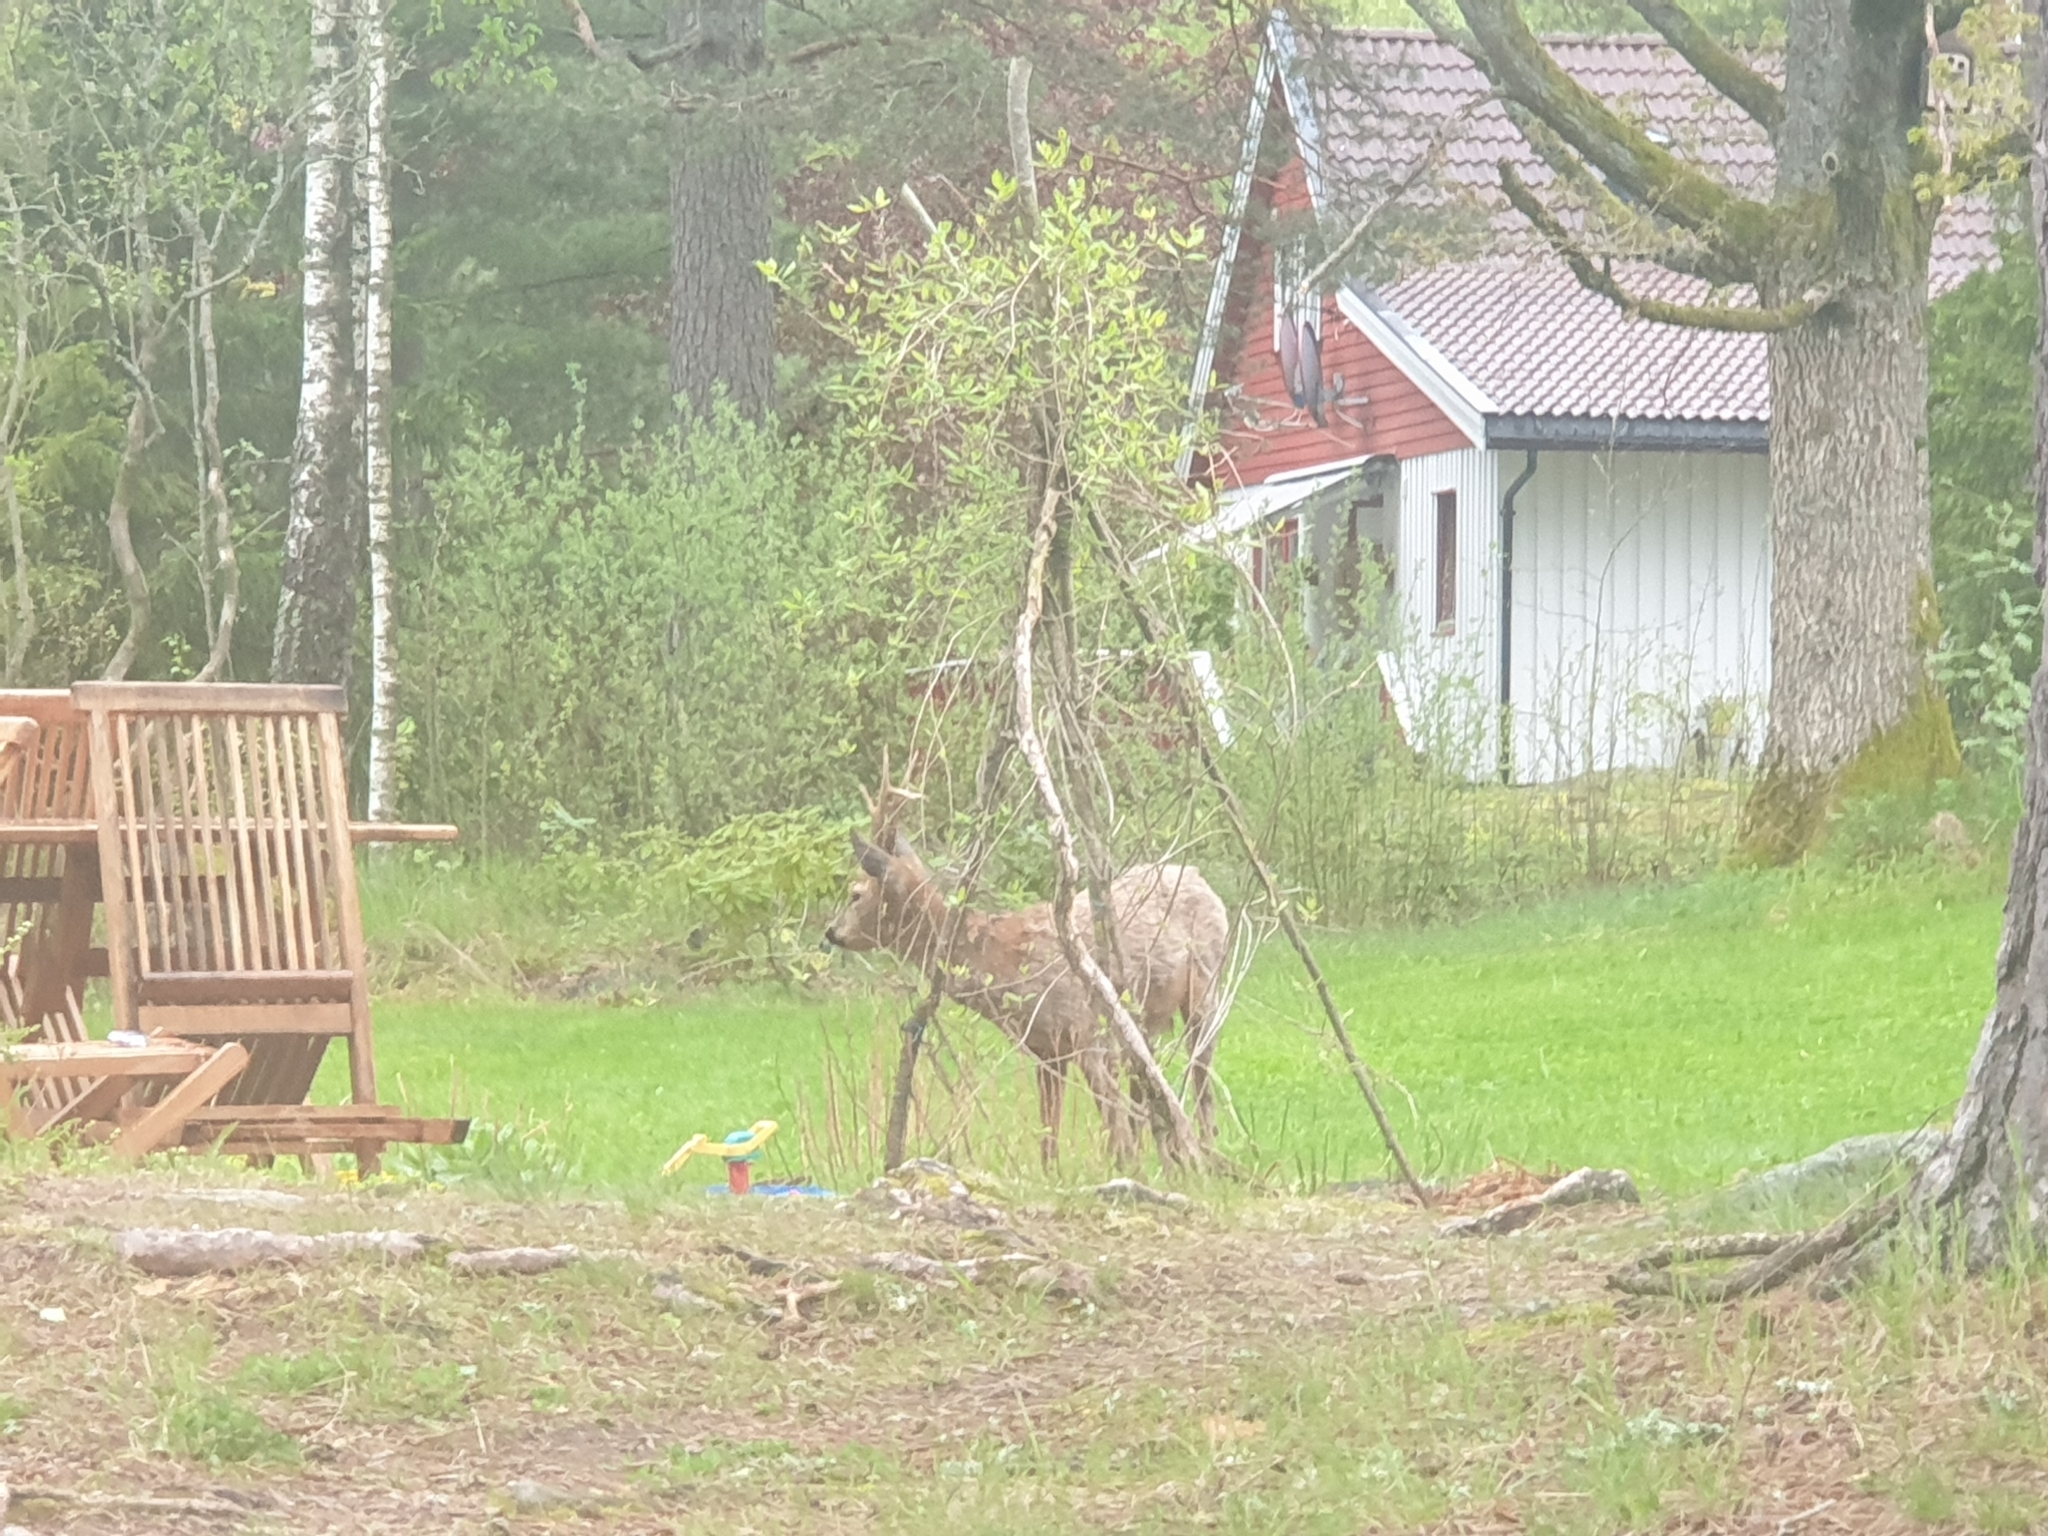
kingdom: Animalia
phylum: Chordata
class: Mammalia
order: Artiodactyla
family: Cervidae
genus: Capreolus
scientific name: Capreolus capreolus
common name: Western roe deer
